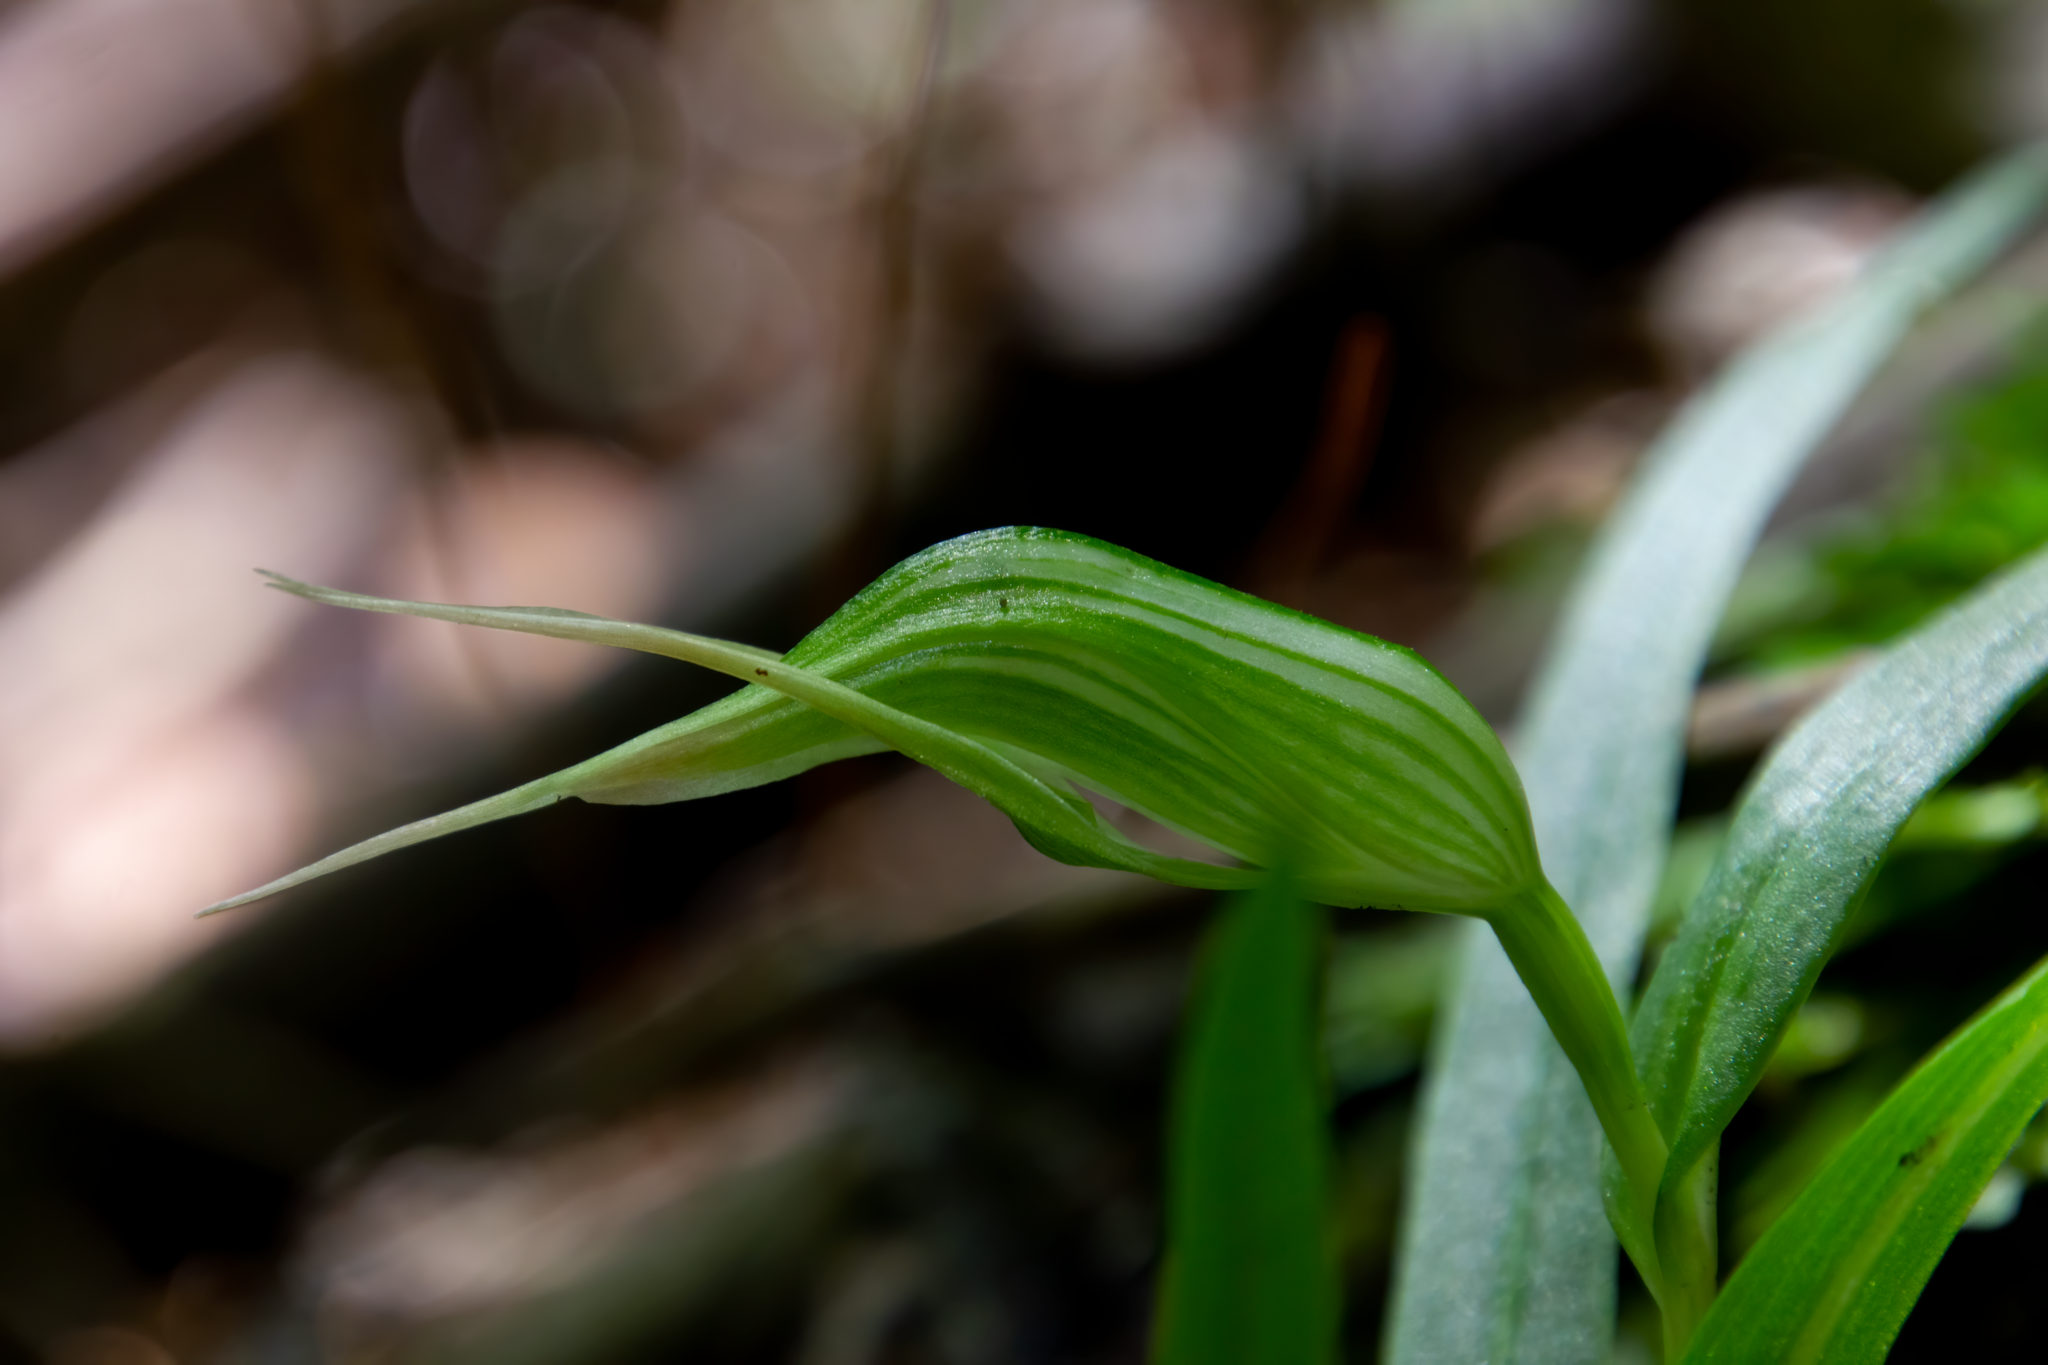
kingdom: Plantae
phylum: Tracheophyta
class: Liliopsida
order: Asparagales
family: Orchidaceae
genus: Pterostylis
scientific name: Pterostylis banksii
